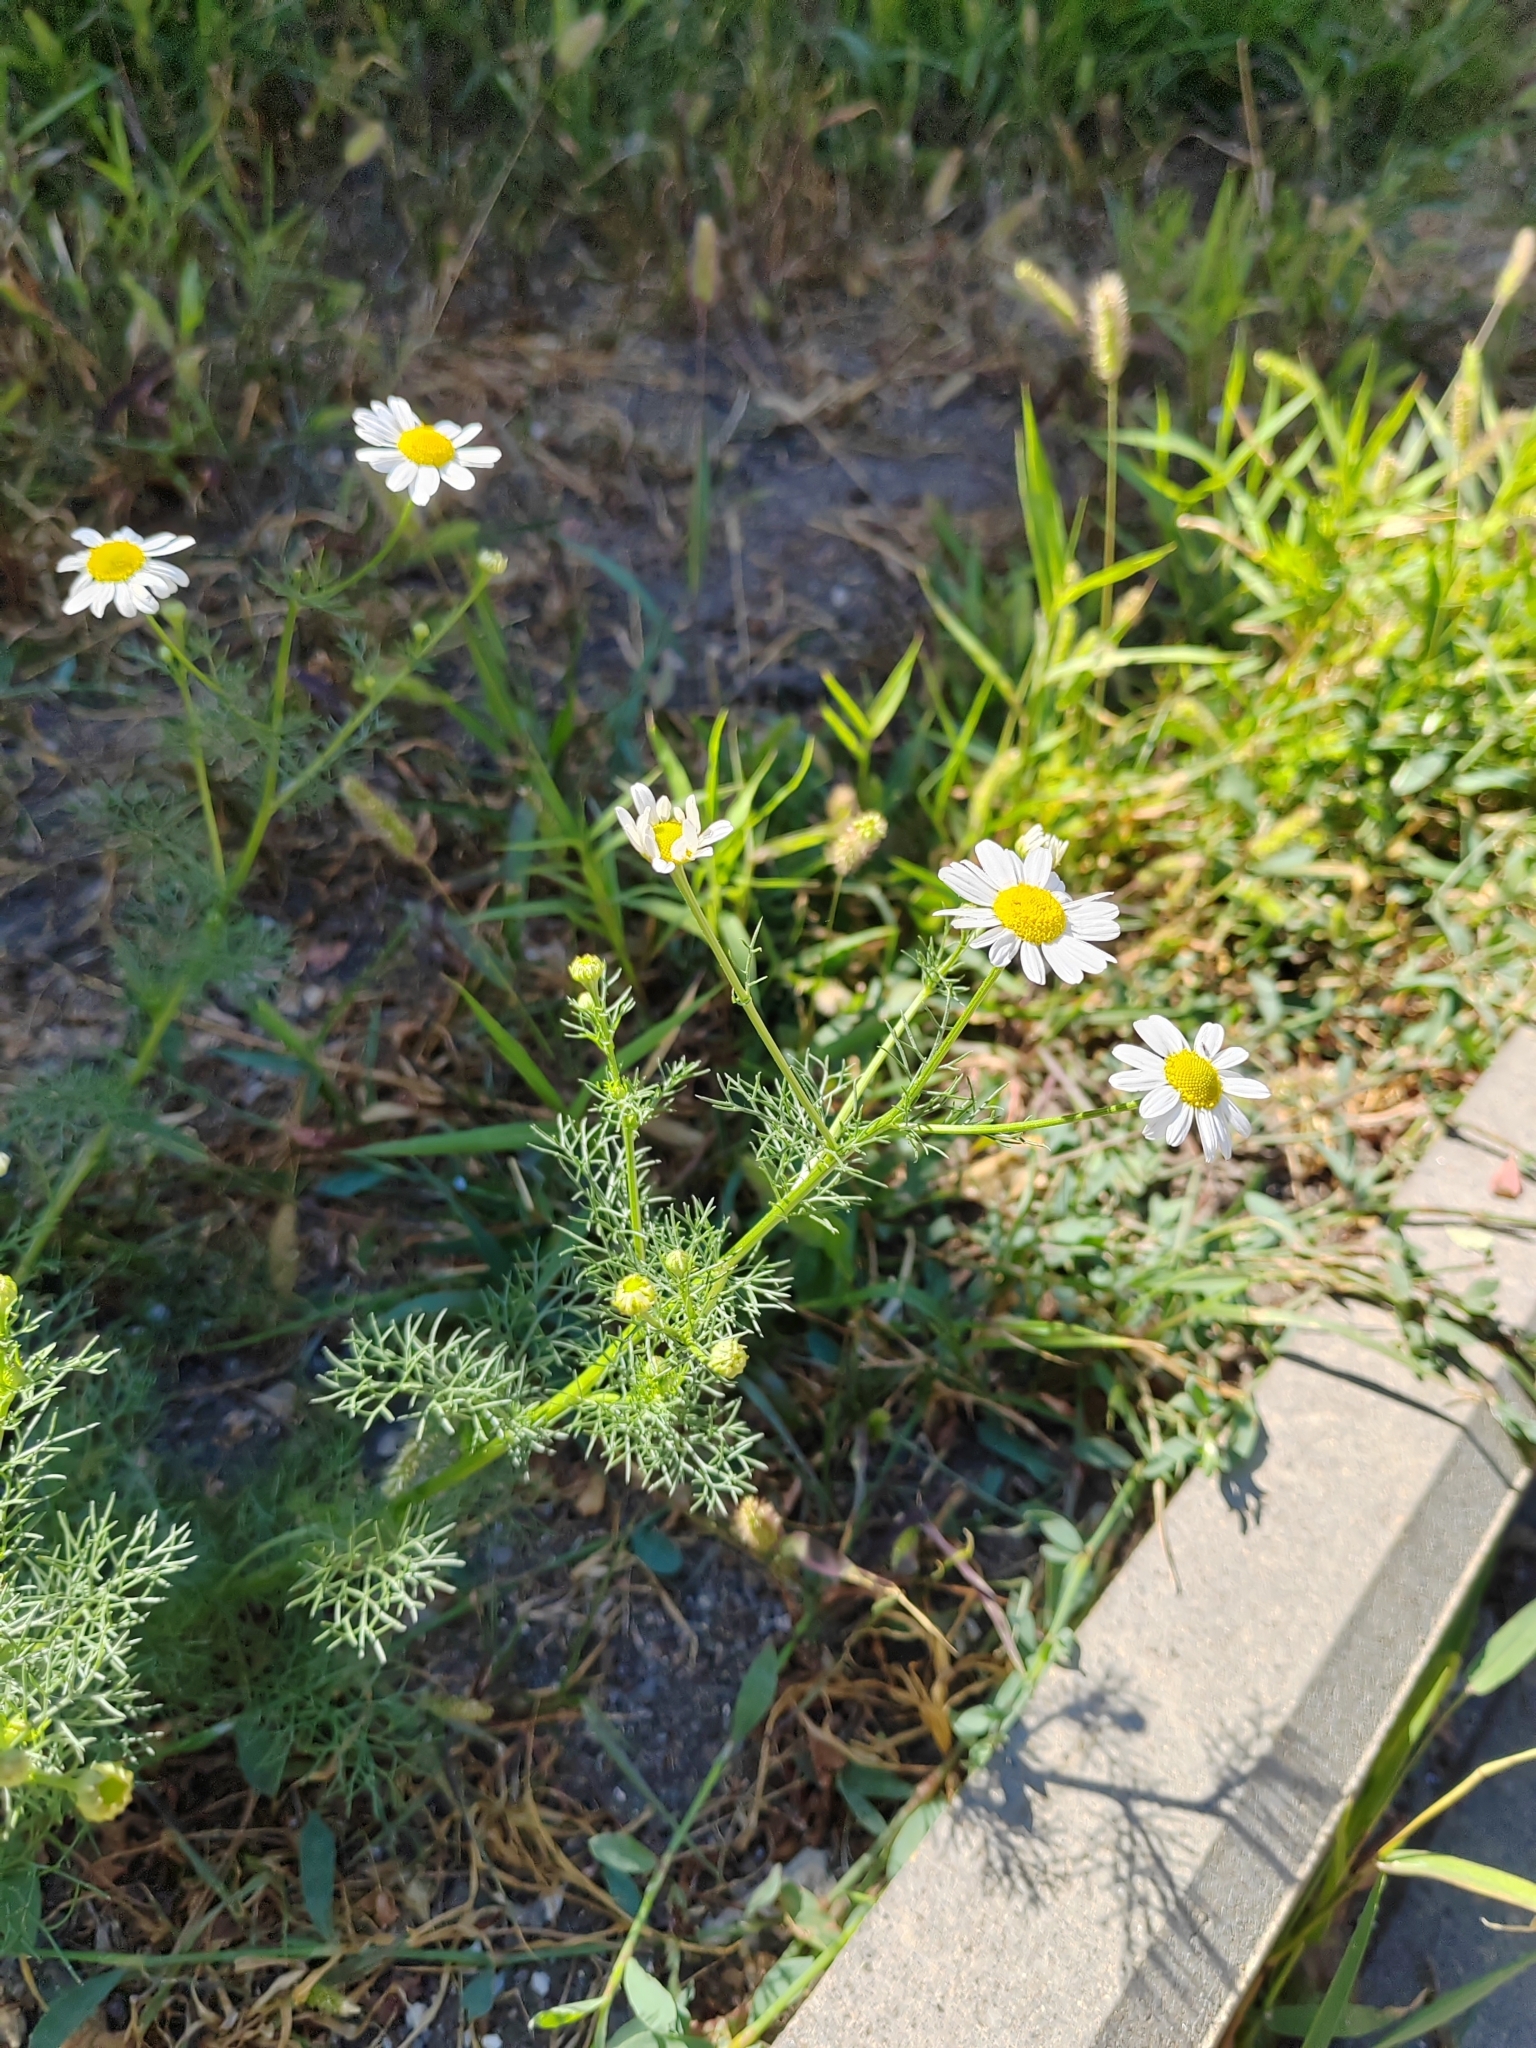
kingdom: Plantae
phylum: Tracheophyta
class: Magnoliopsida
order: Asterales
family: Asteraceae
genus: Tripleurospermum
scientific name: Tripleurospermum inodorum
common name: Scentless mayweed
